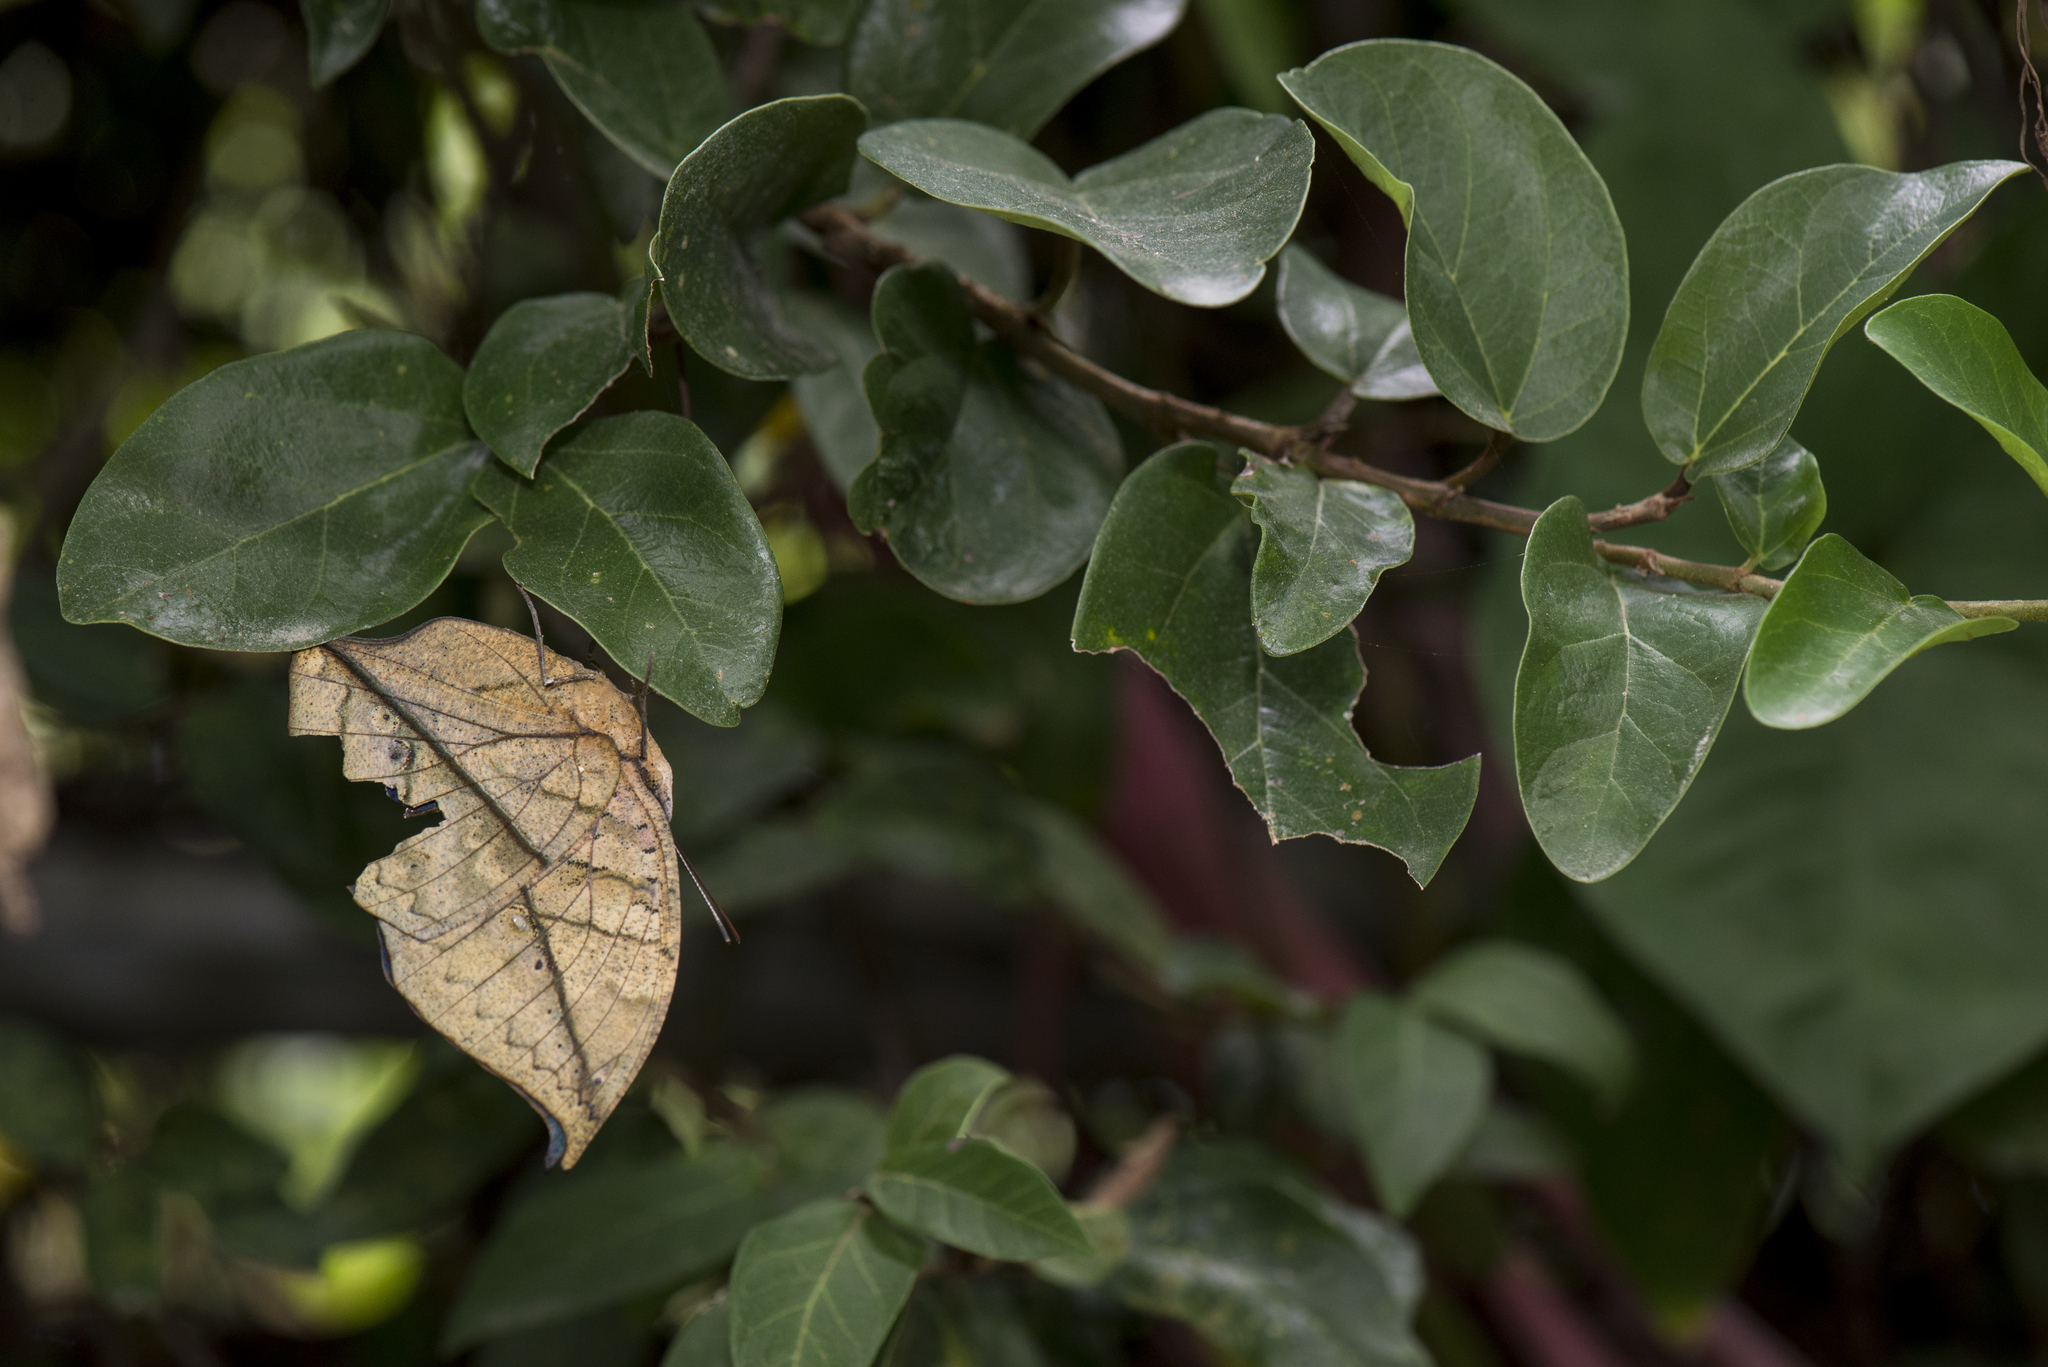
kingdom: Animalia
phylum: Arthropoda
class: Insecta
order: Lepidoptera
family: Nymphalidae
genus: Kallima
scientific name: Kallima inachus
